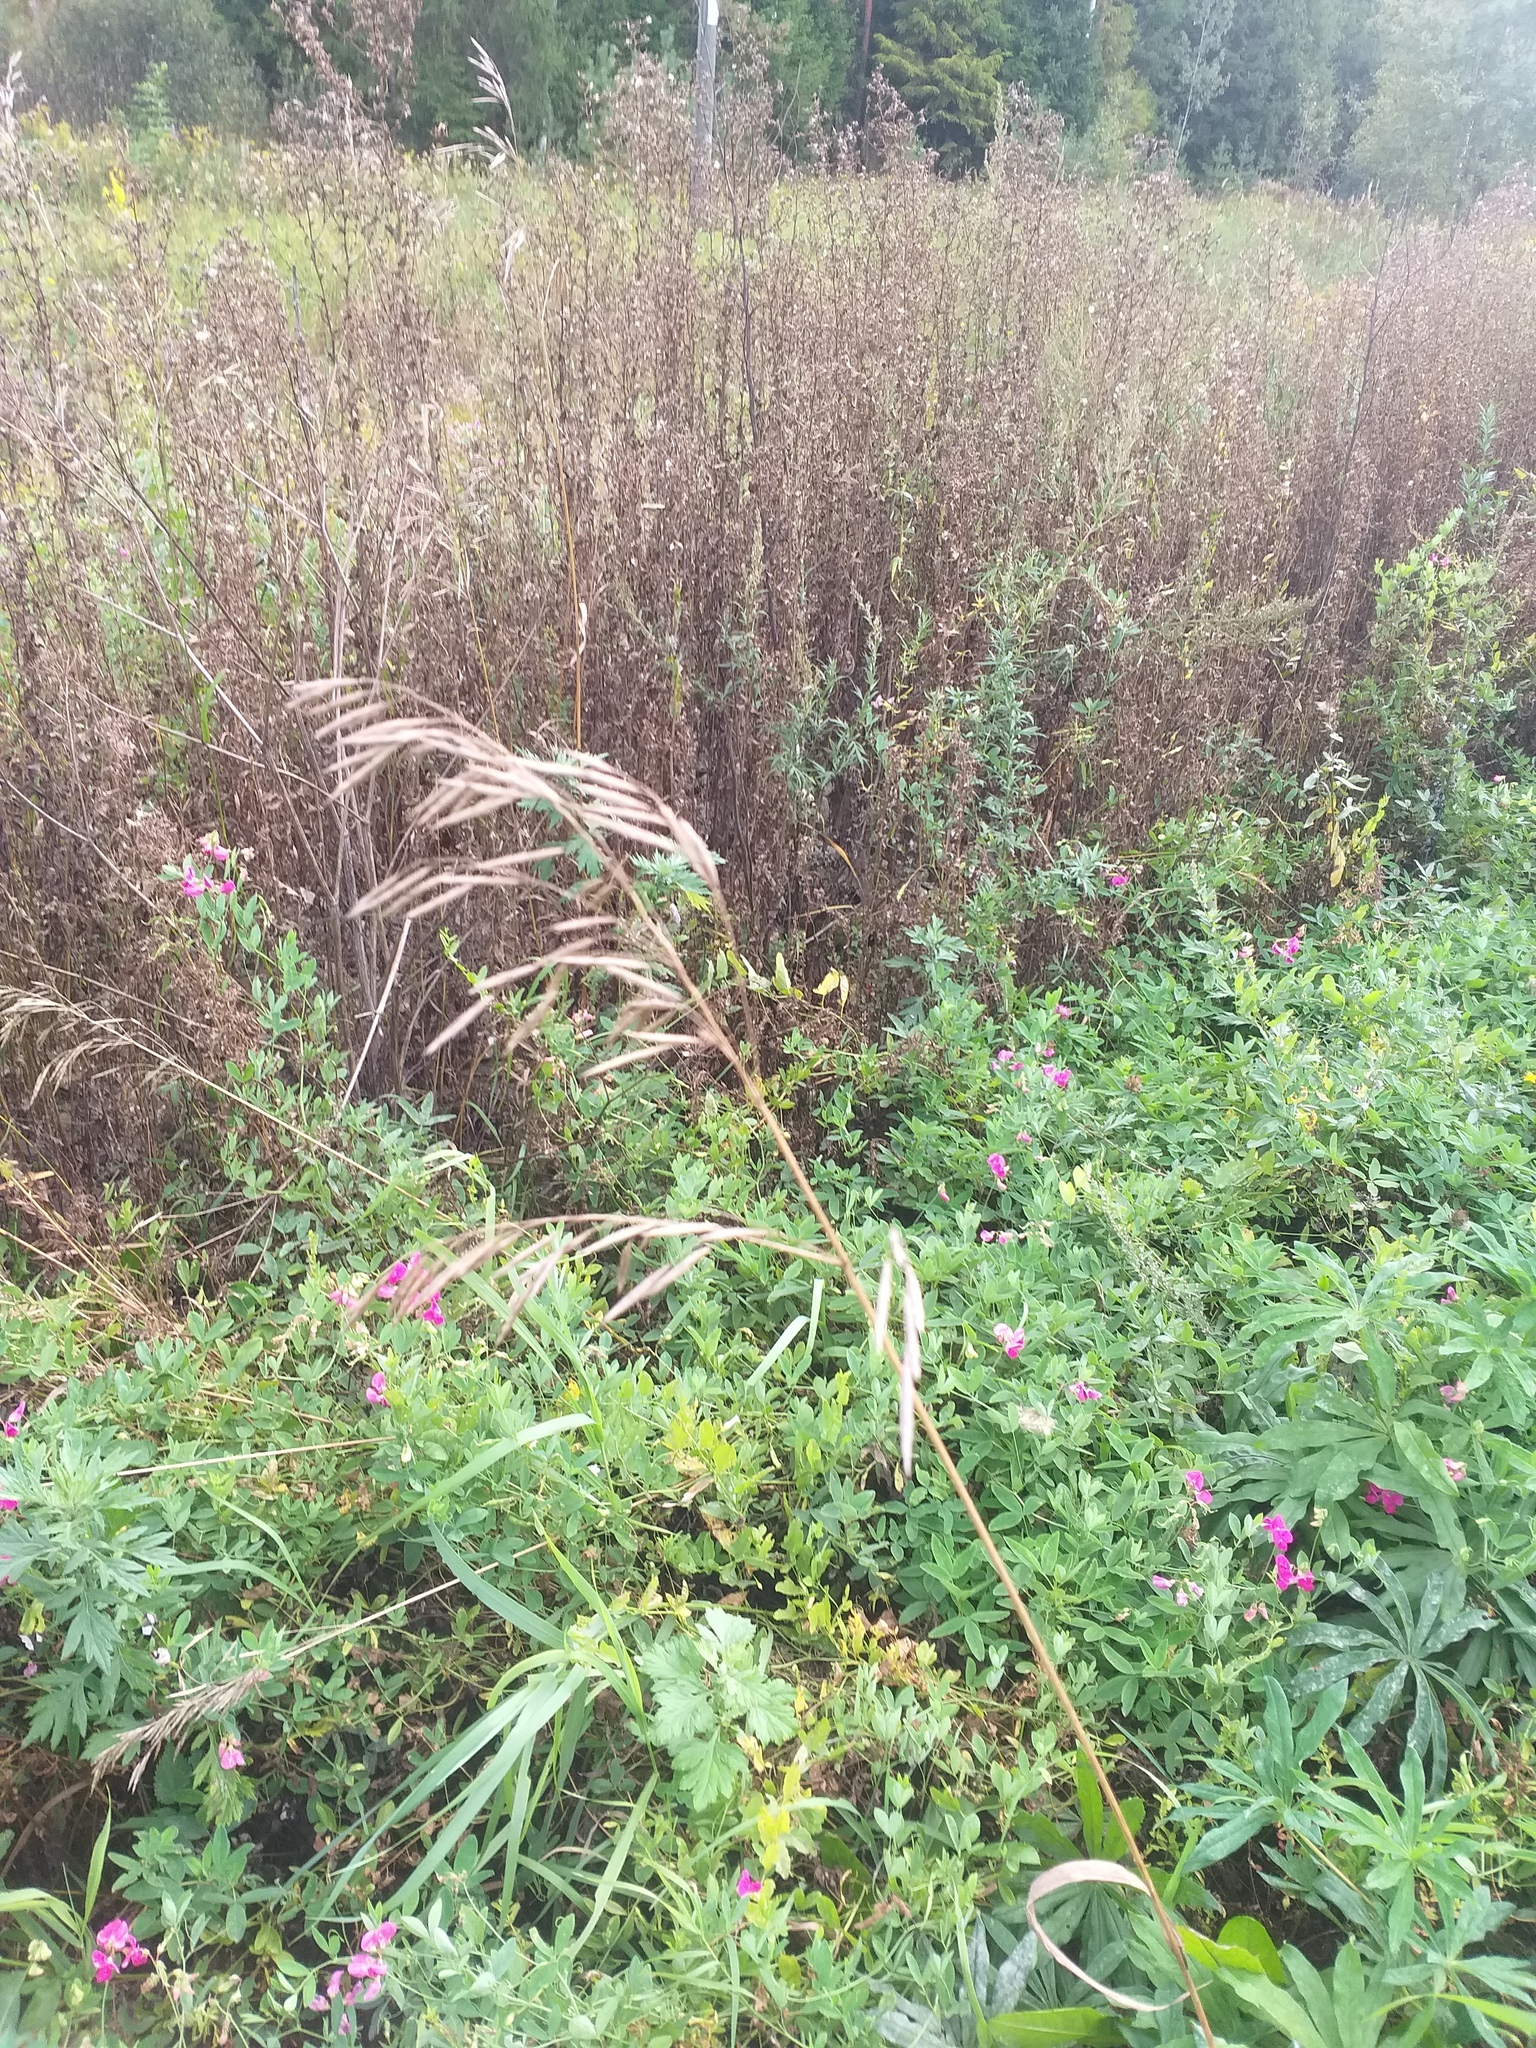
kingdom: Plantae
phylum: Tracheophyta
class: Liliopsida
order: Poales
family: Poaceae
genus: Bromus
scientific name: Bromus inermis
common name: Smooth brome
